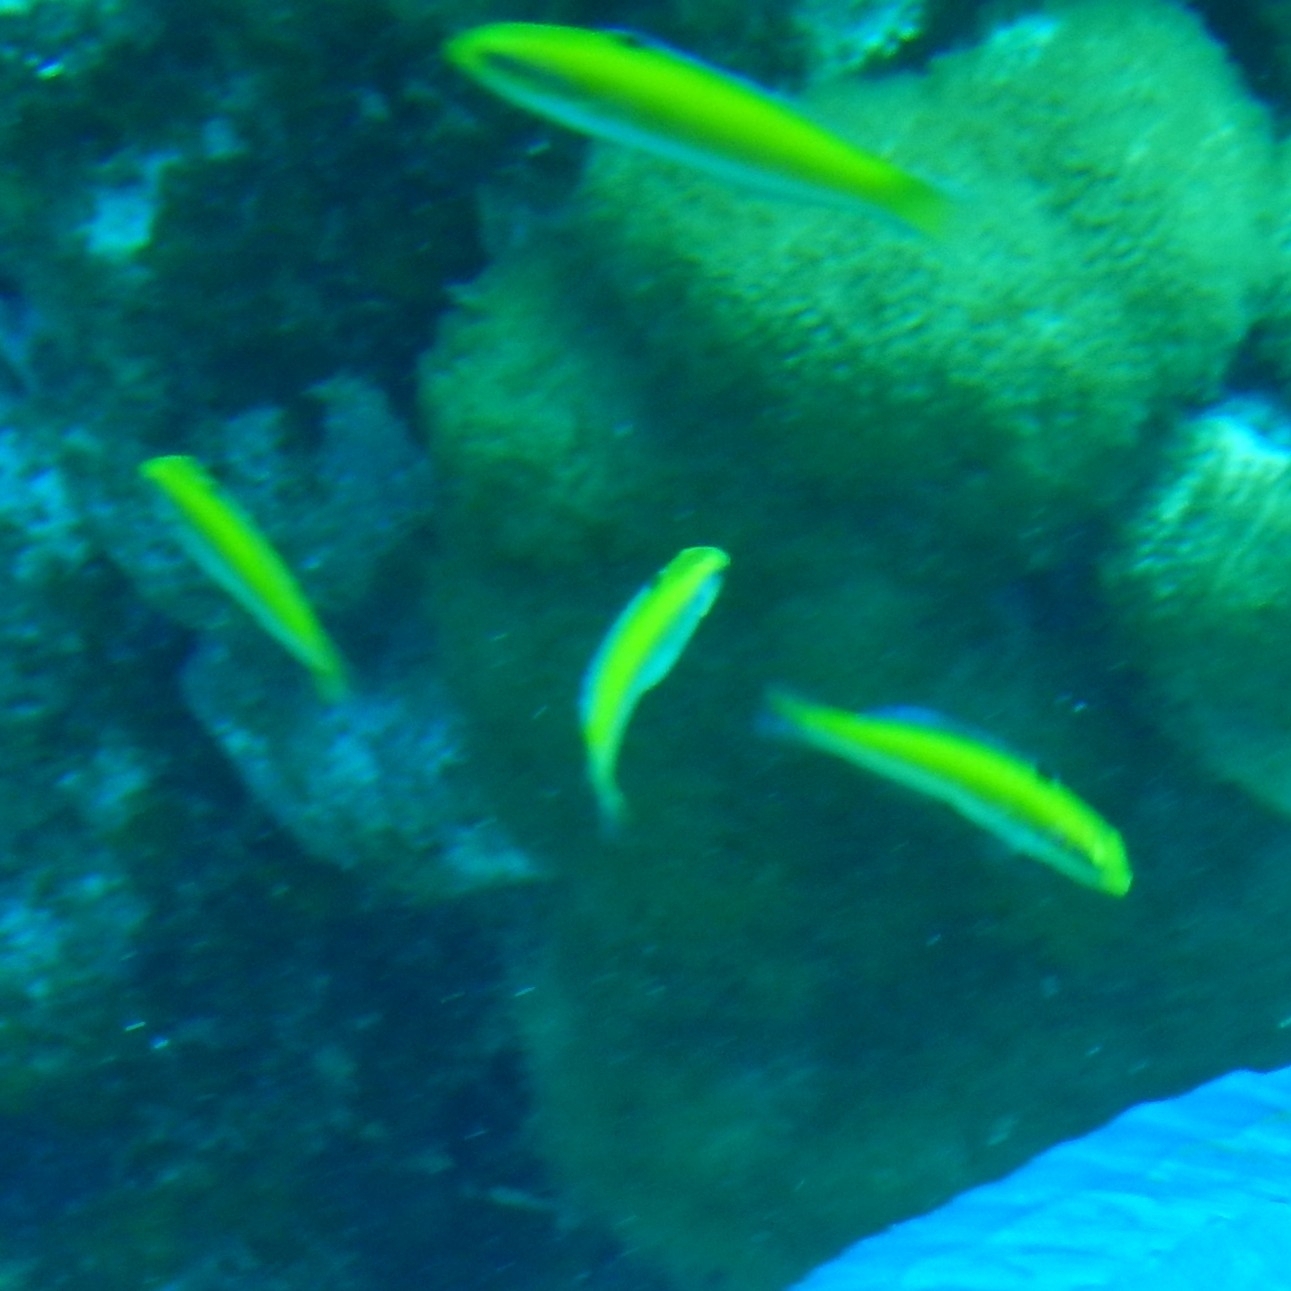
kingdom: Animalia
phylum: Chordata
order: Perciformes
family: Labridae
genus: Thalassoma
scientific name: Thalassoma bifasciatum
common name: Bluehead wrasse
